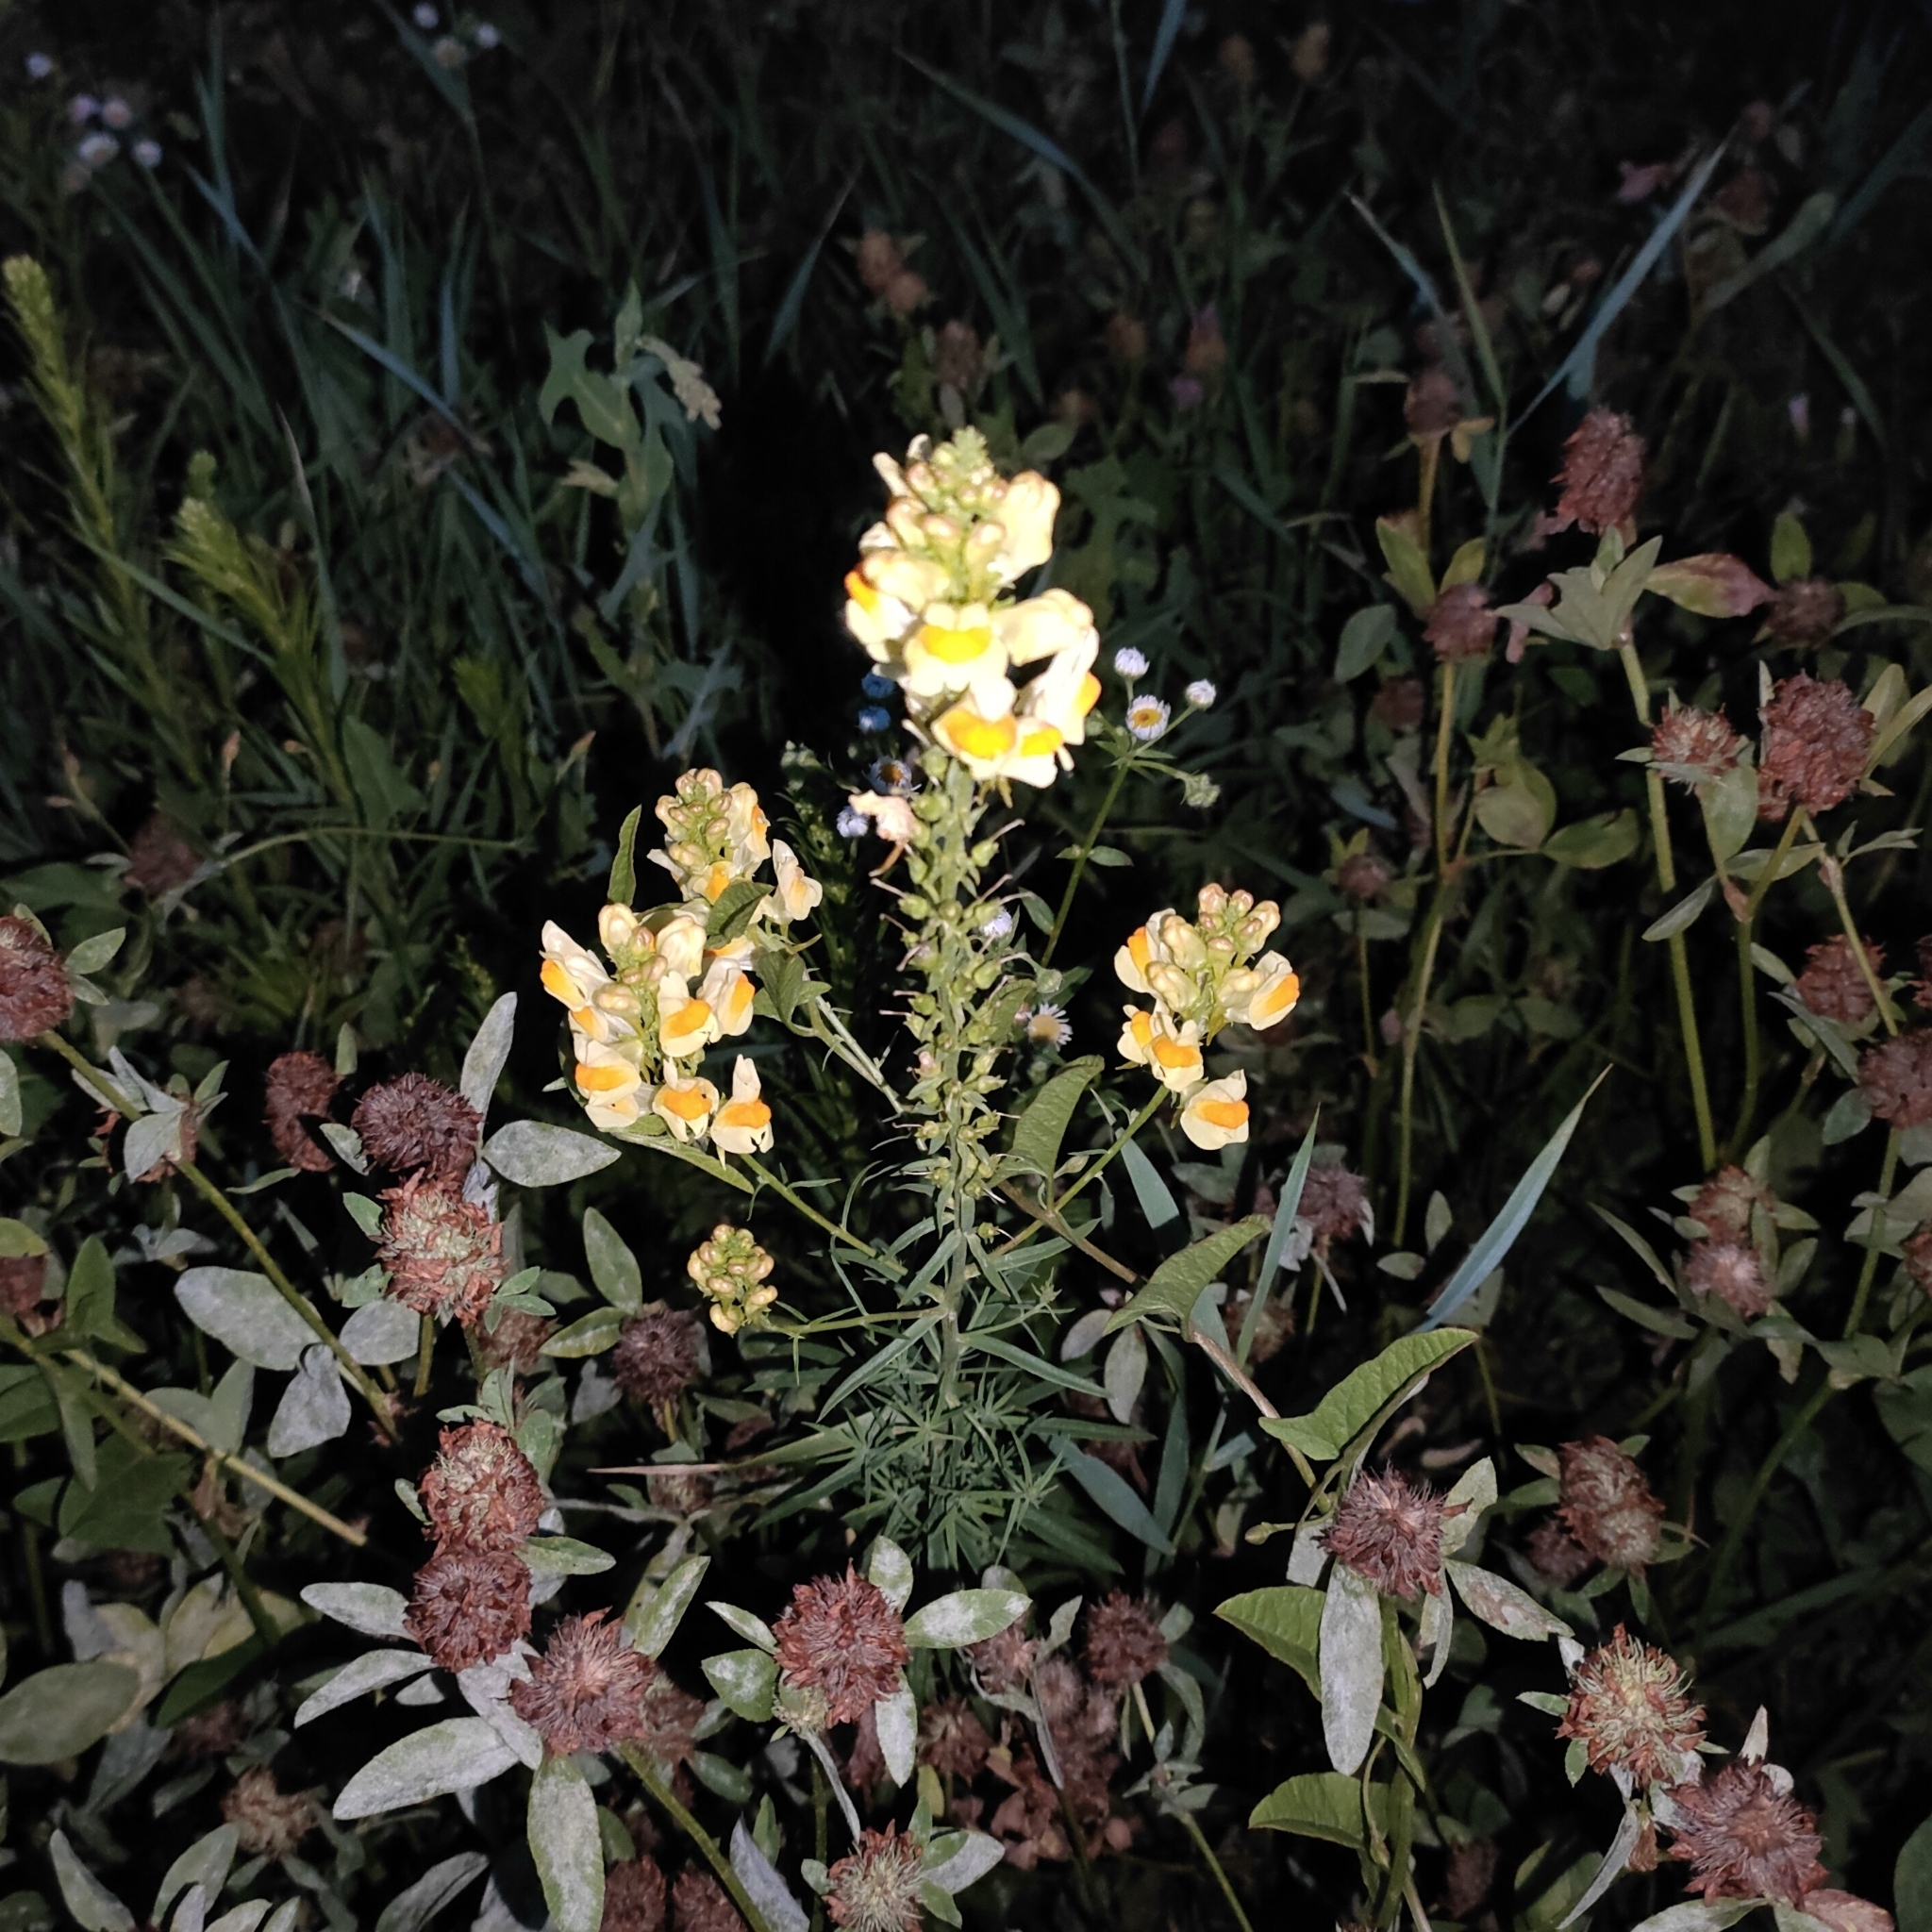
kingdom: Plantae
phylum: Tracheophyta
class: Magnoliopsida
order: Lamiales
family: Plantaginaceae
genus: Linaria
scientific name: Linaria vulgaris
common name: Butter and eggs
